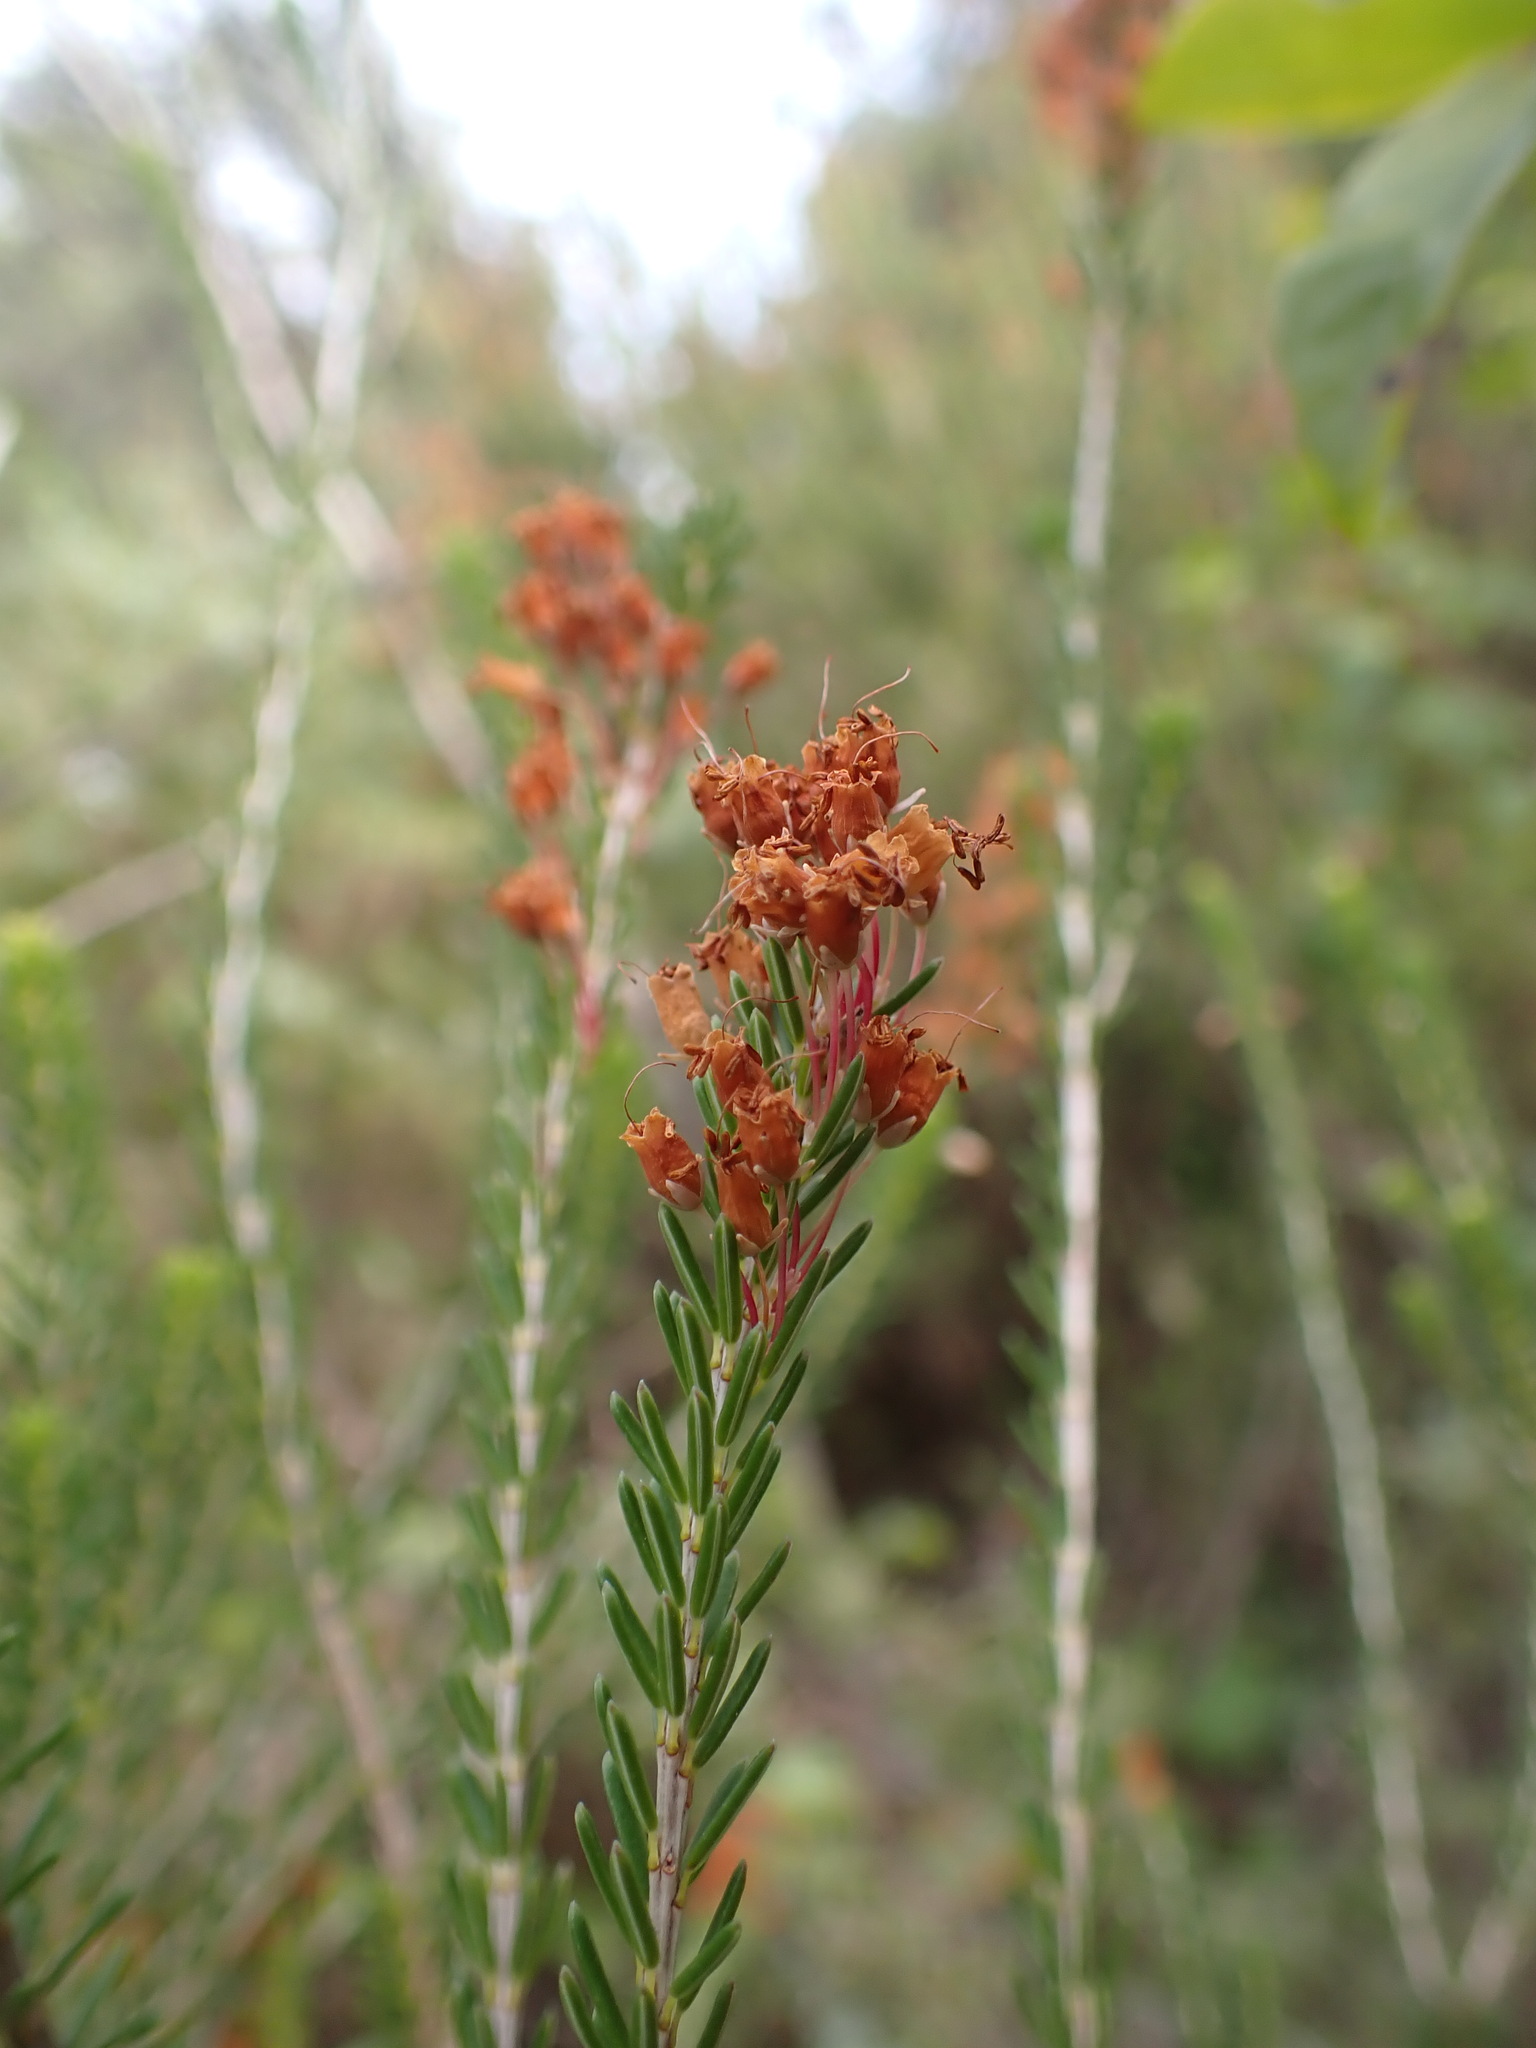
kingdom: Plantae
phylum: Tracheophyta
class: Magnoliopsida
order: Ericales
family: Ericaceae
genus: Erica
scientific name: Erica multiflora
